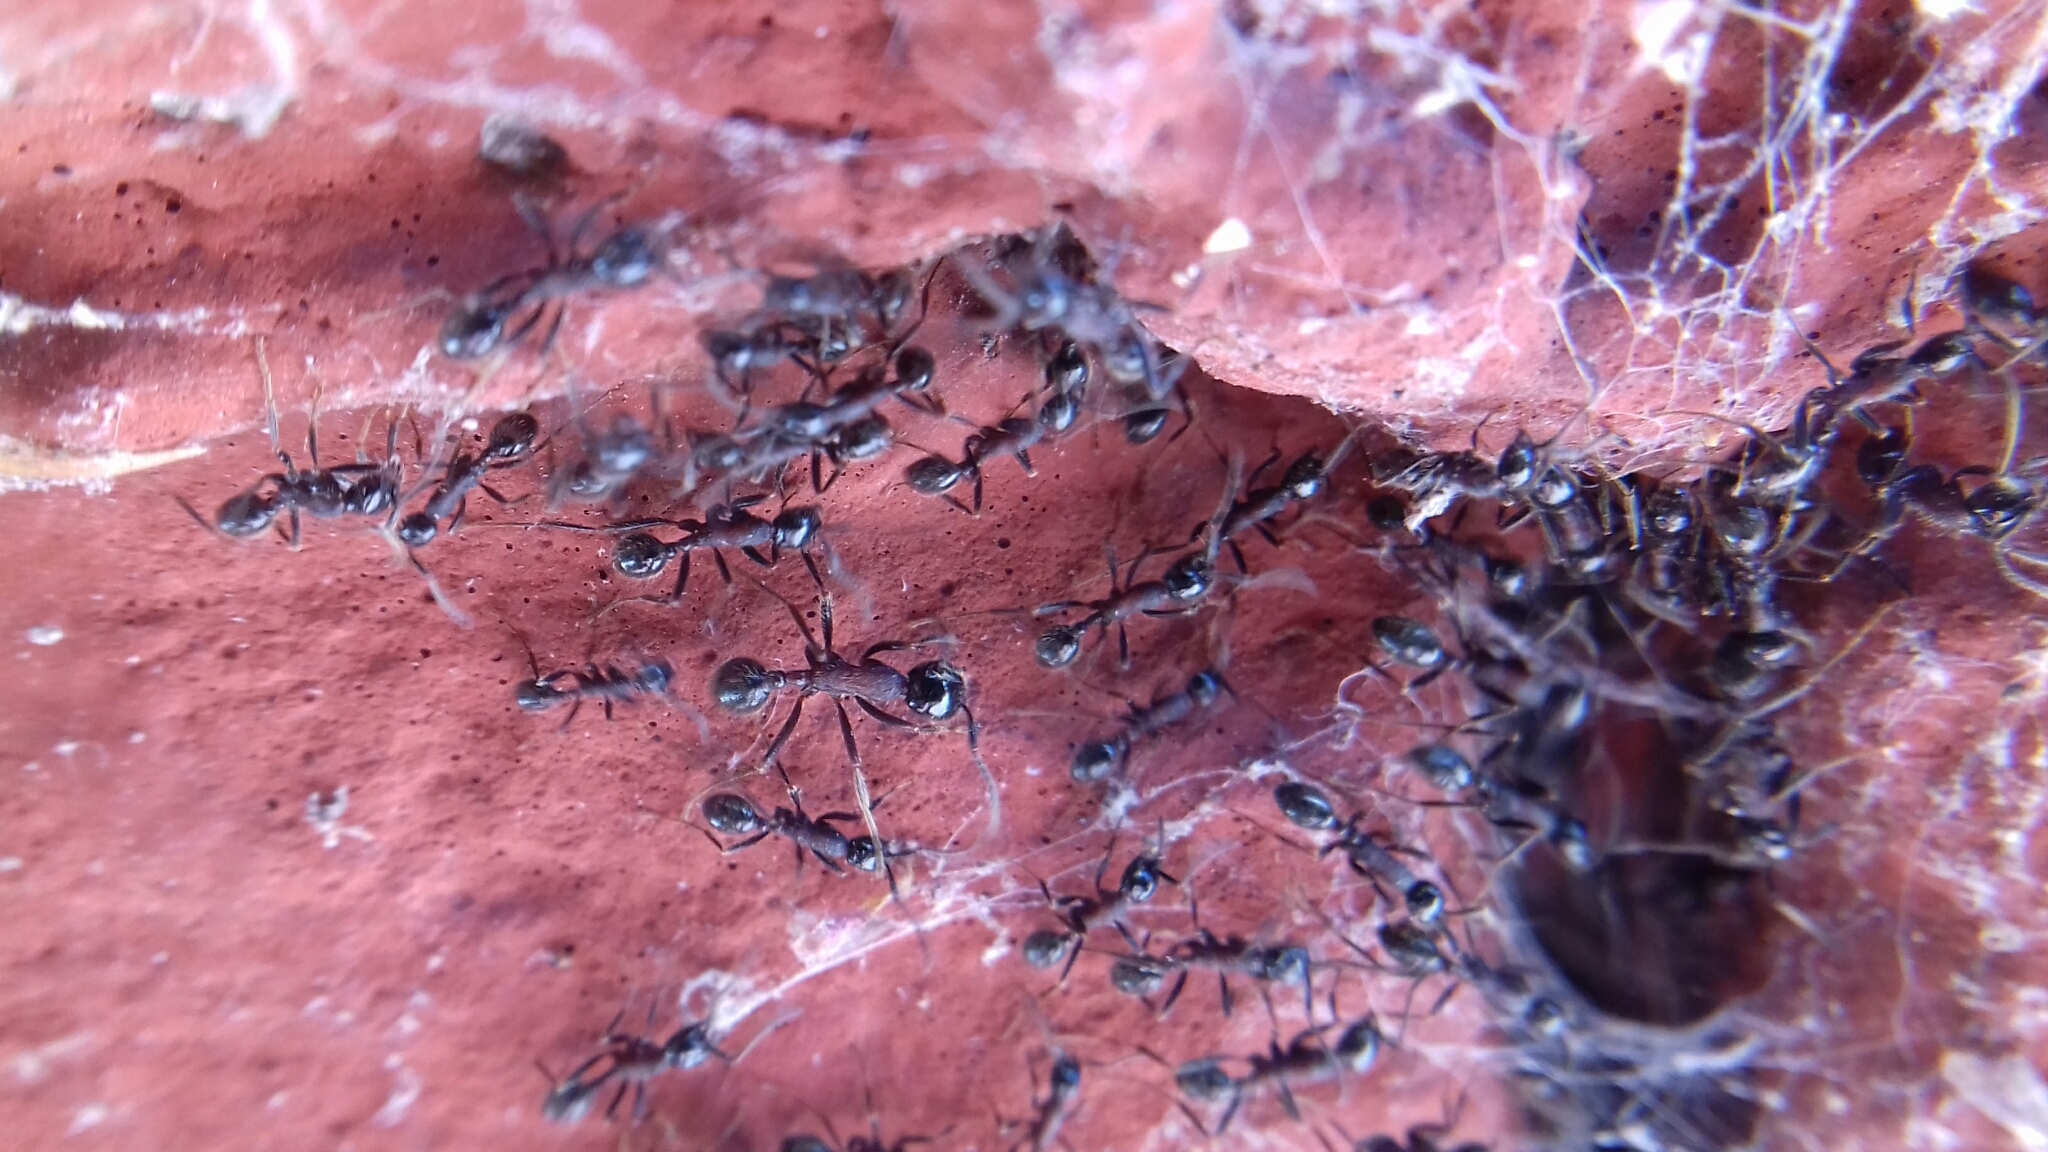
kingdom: Animalia
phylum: Arthropoda
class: Insecta
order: Hymenoptera
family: Formicidae
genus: Neivamyrmex
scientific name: Neivamyrmex melanocephalus
